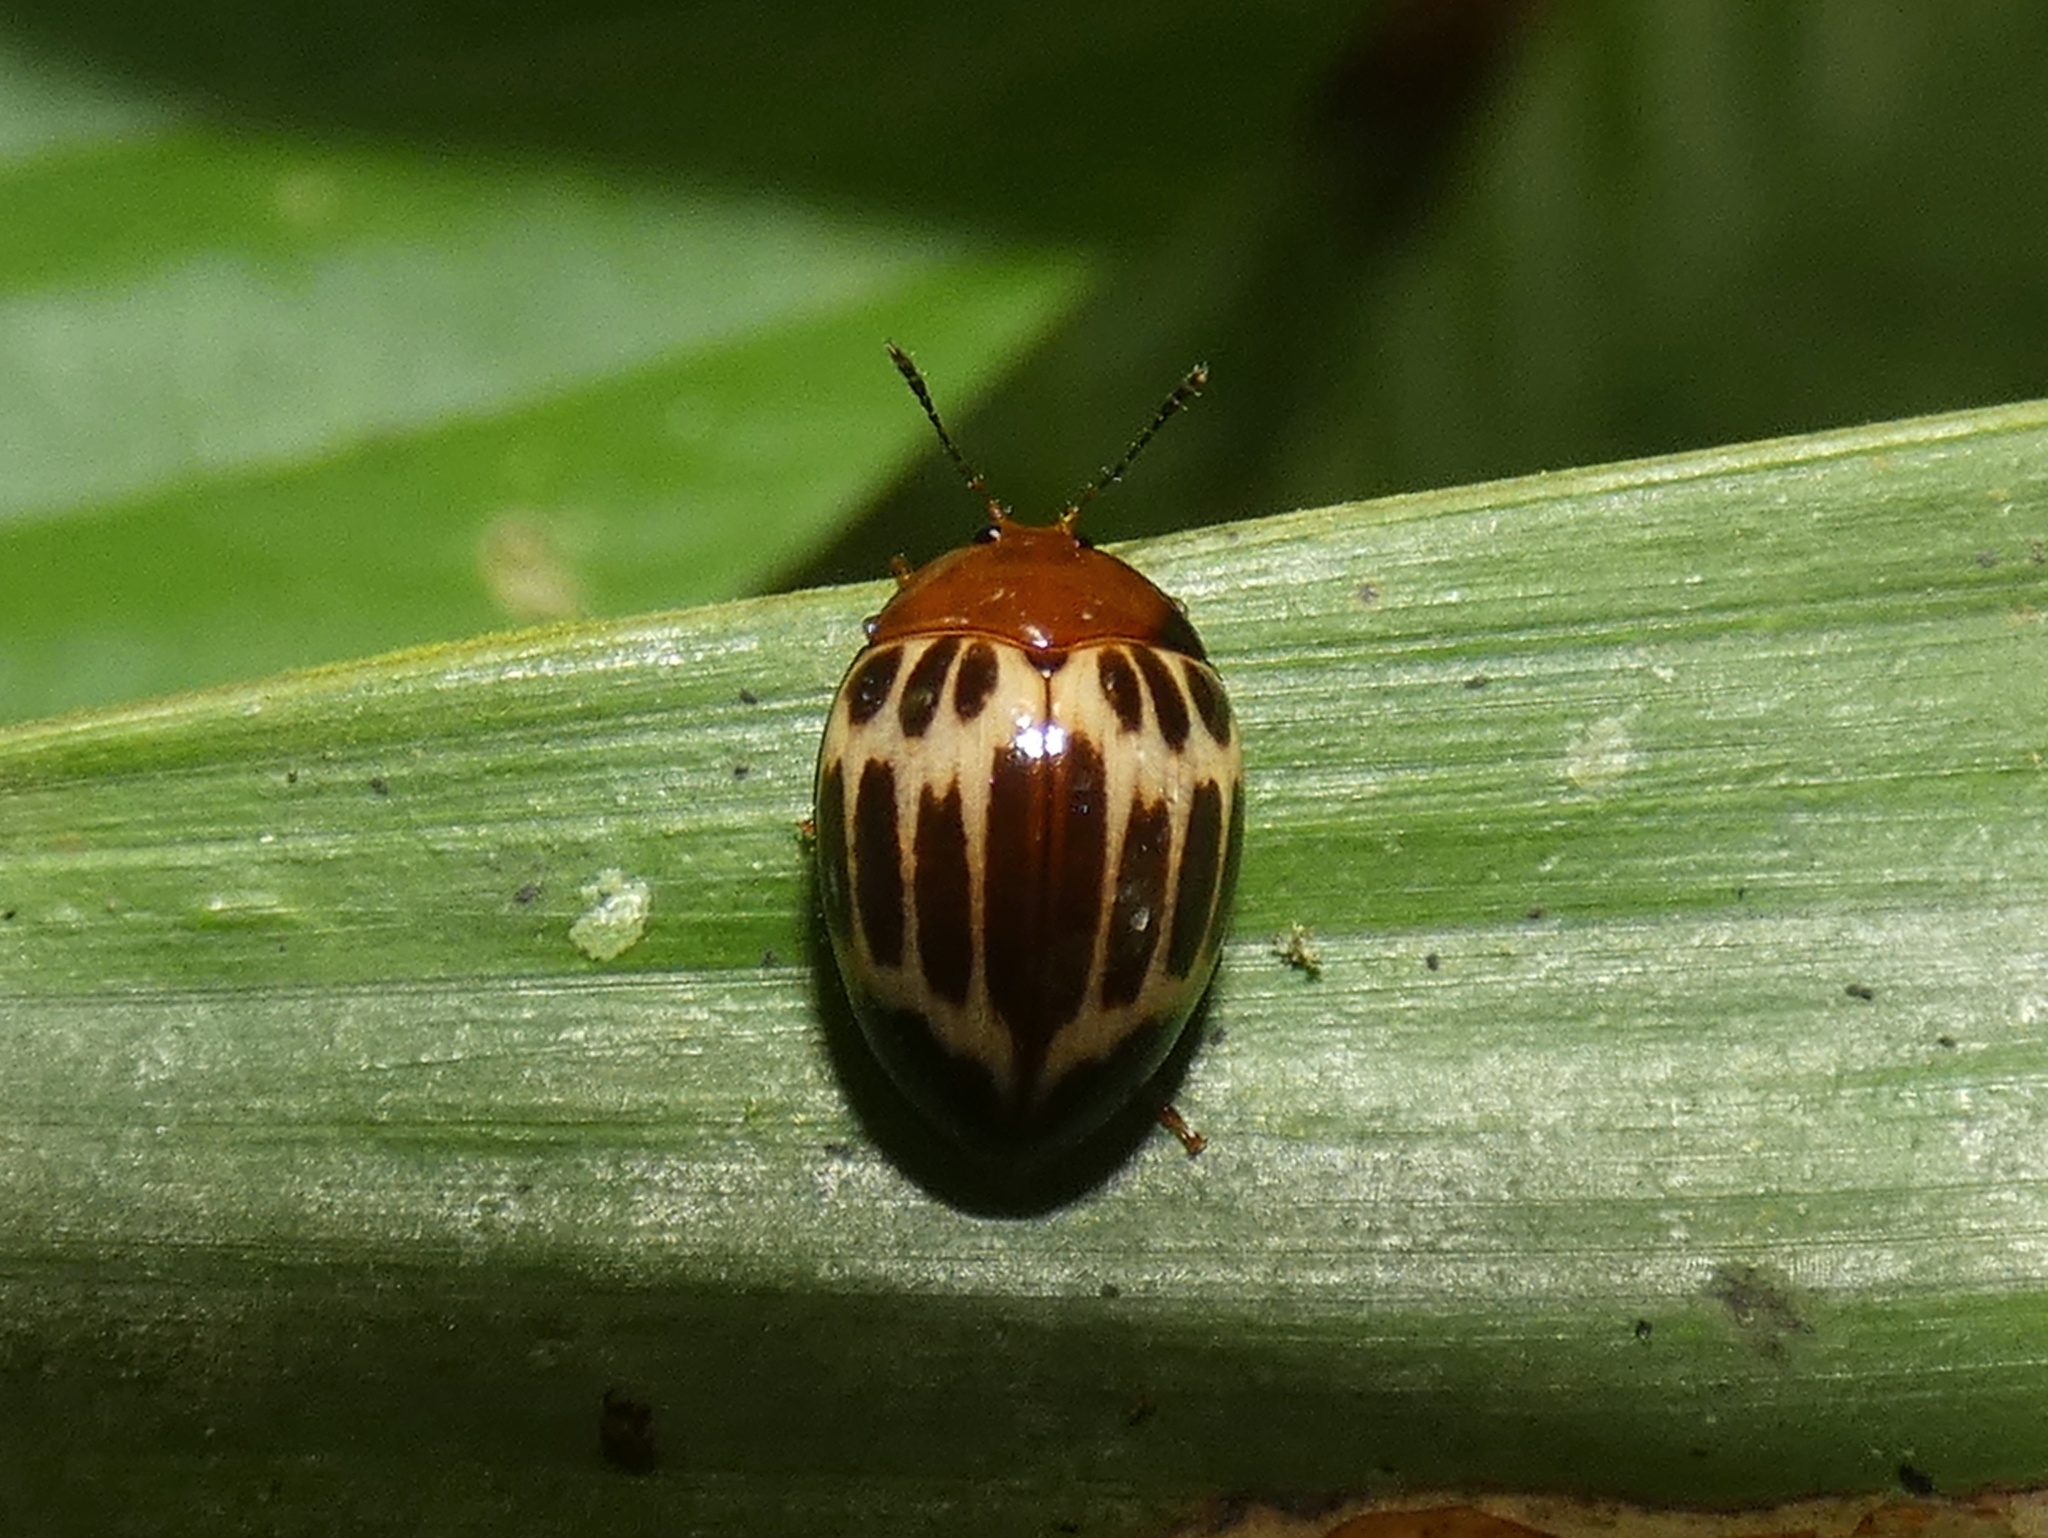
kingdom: Animalia
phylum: Arthropoda
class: Insecta
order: Coleoptera
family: Erotylidae
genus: Iphiclus
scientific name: Iphiclus
